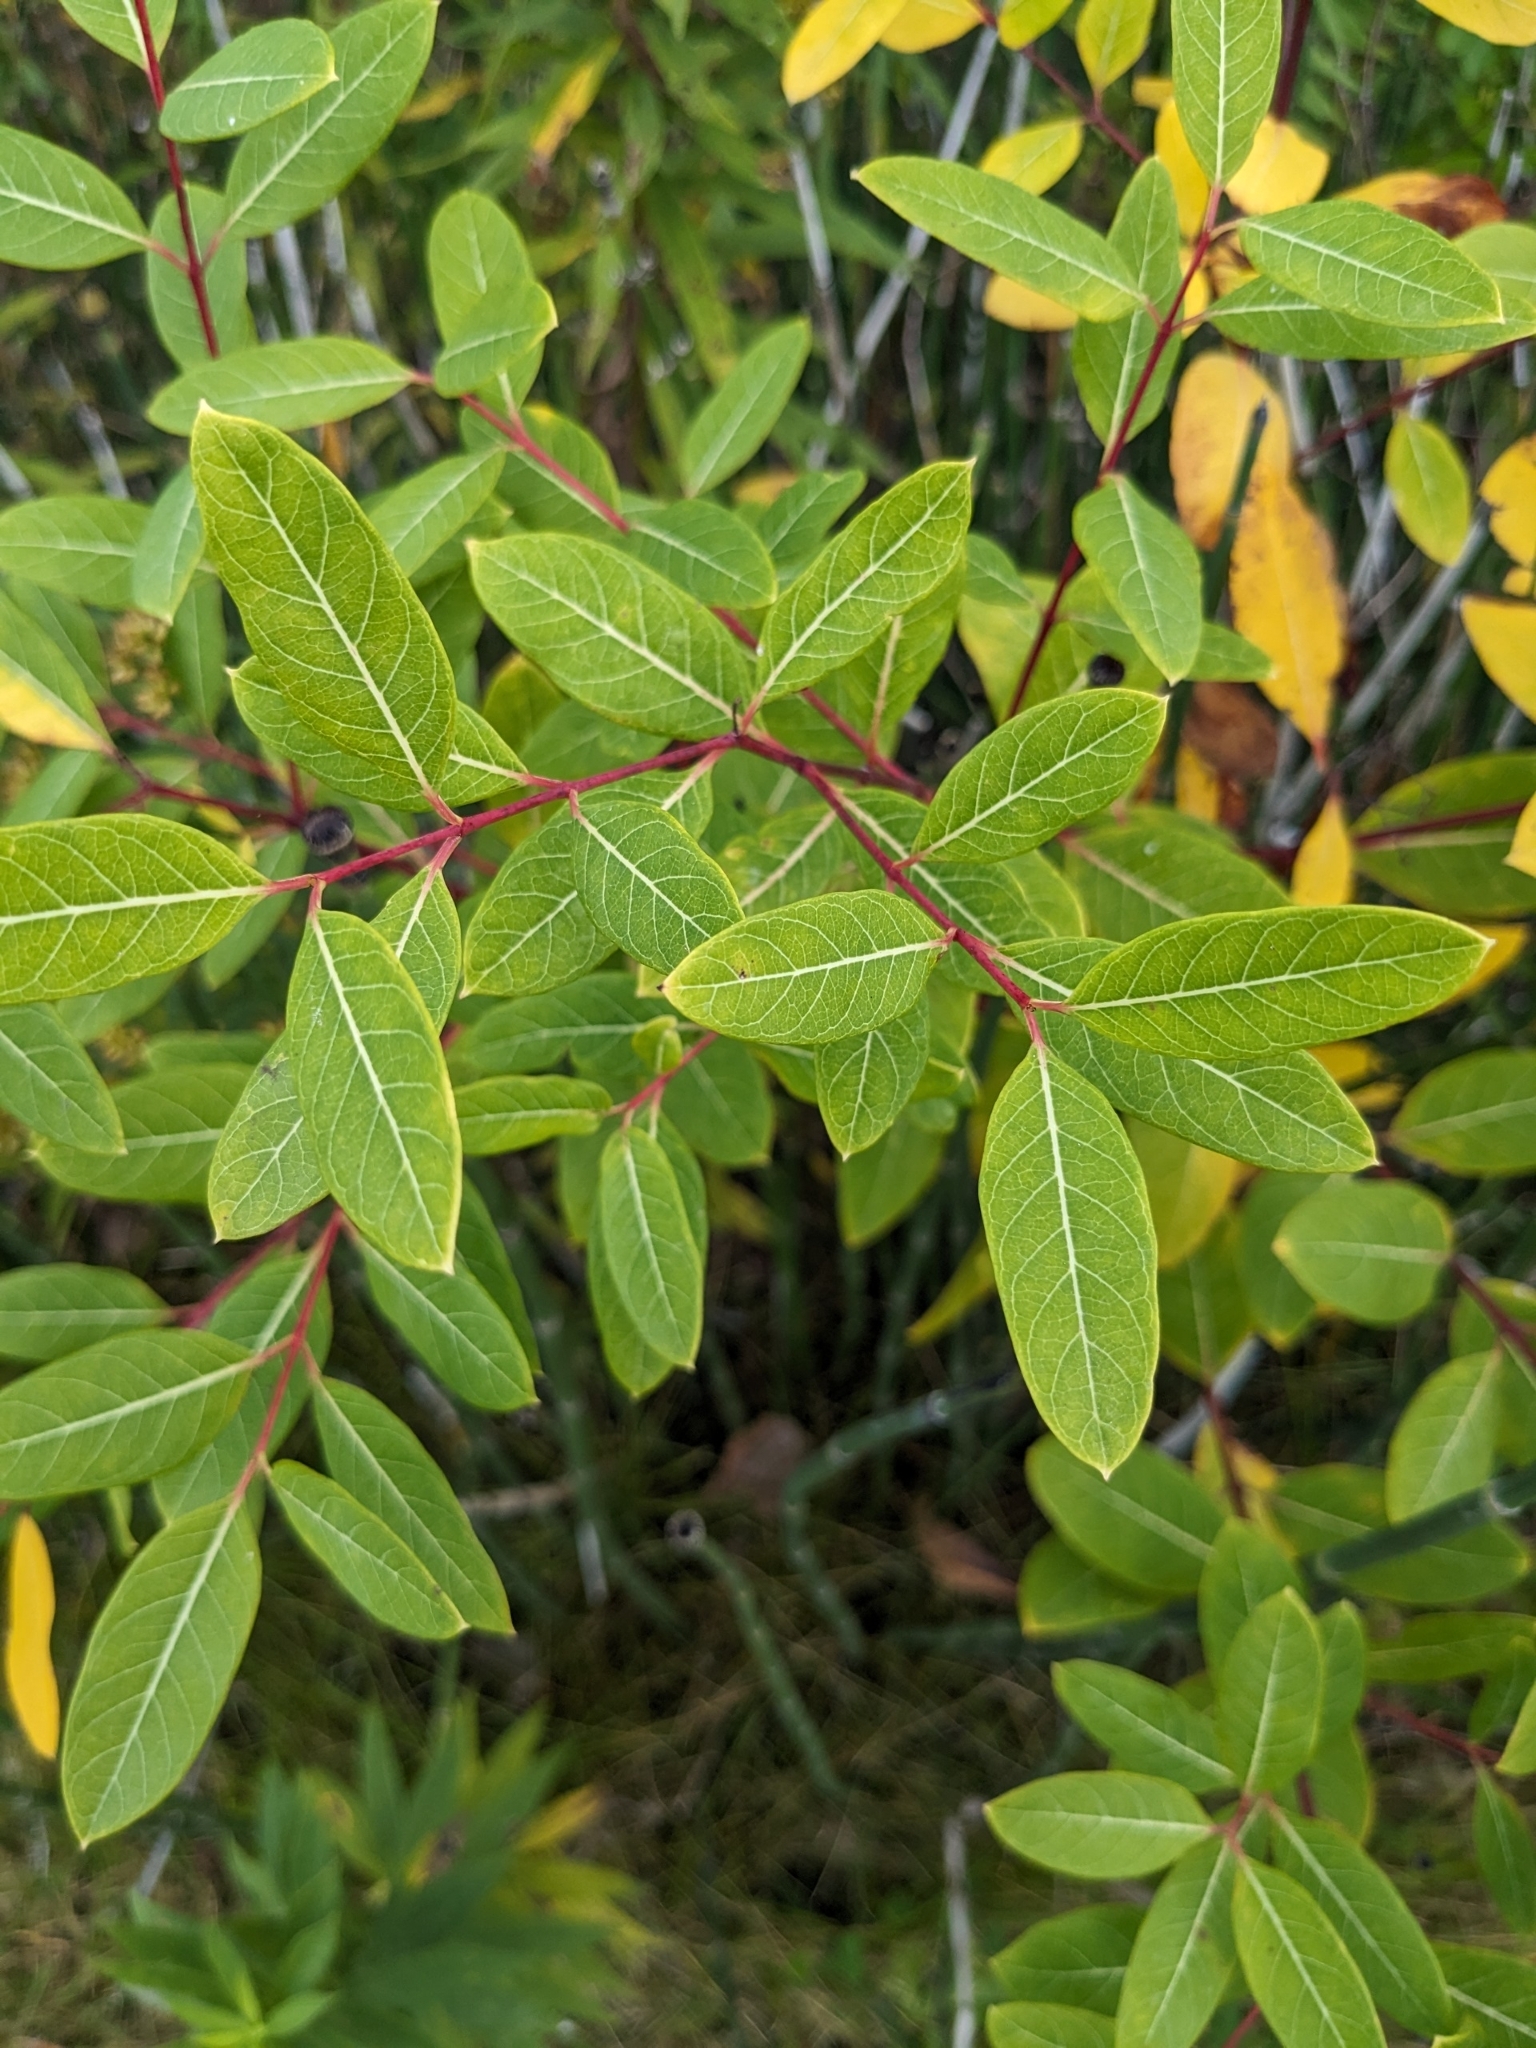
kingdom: Plantae
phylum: Tracheophyta
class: Magnoliopsida
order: Gentianales
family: Apocynaceae
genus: Apocynum
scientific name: Apocynum cannabinum
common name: Hemp dogbane
